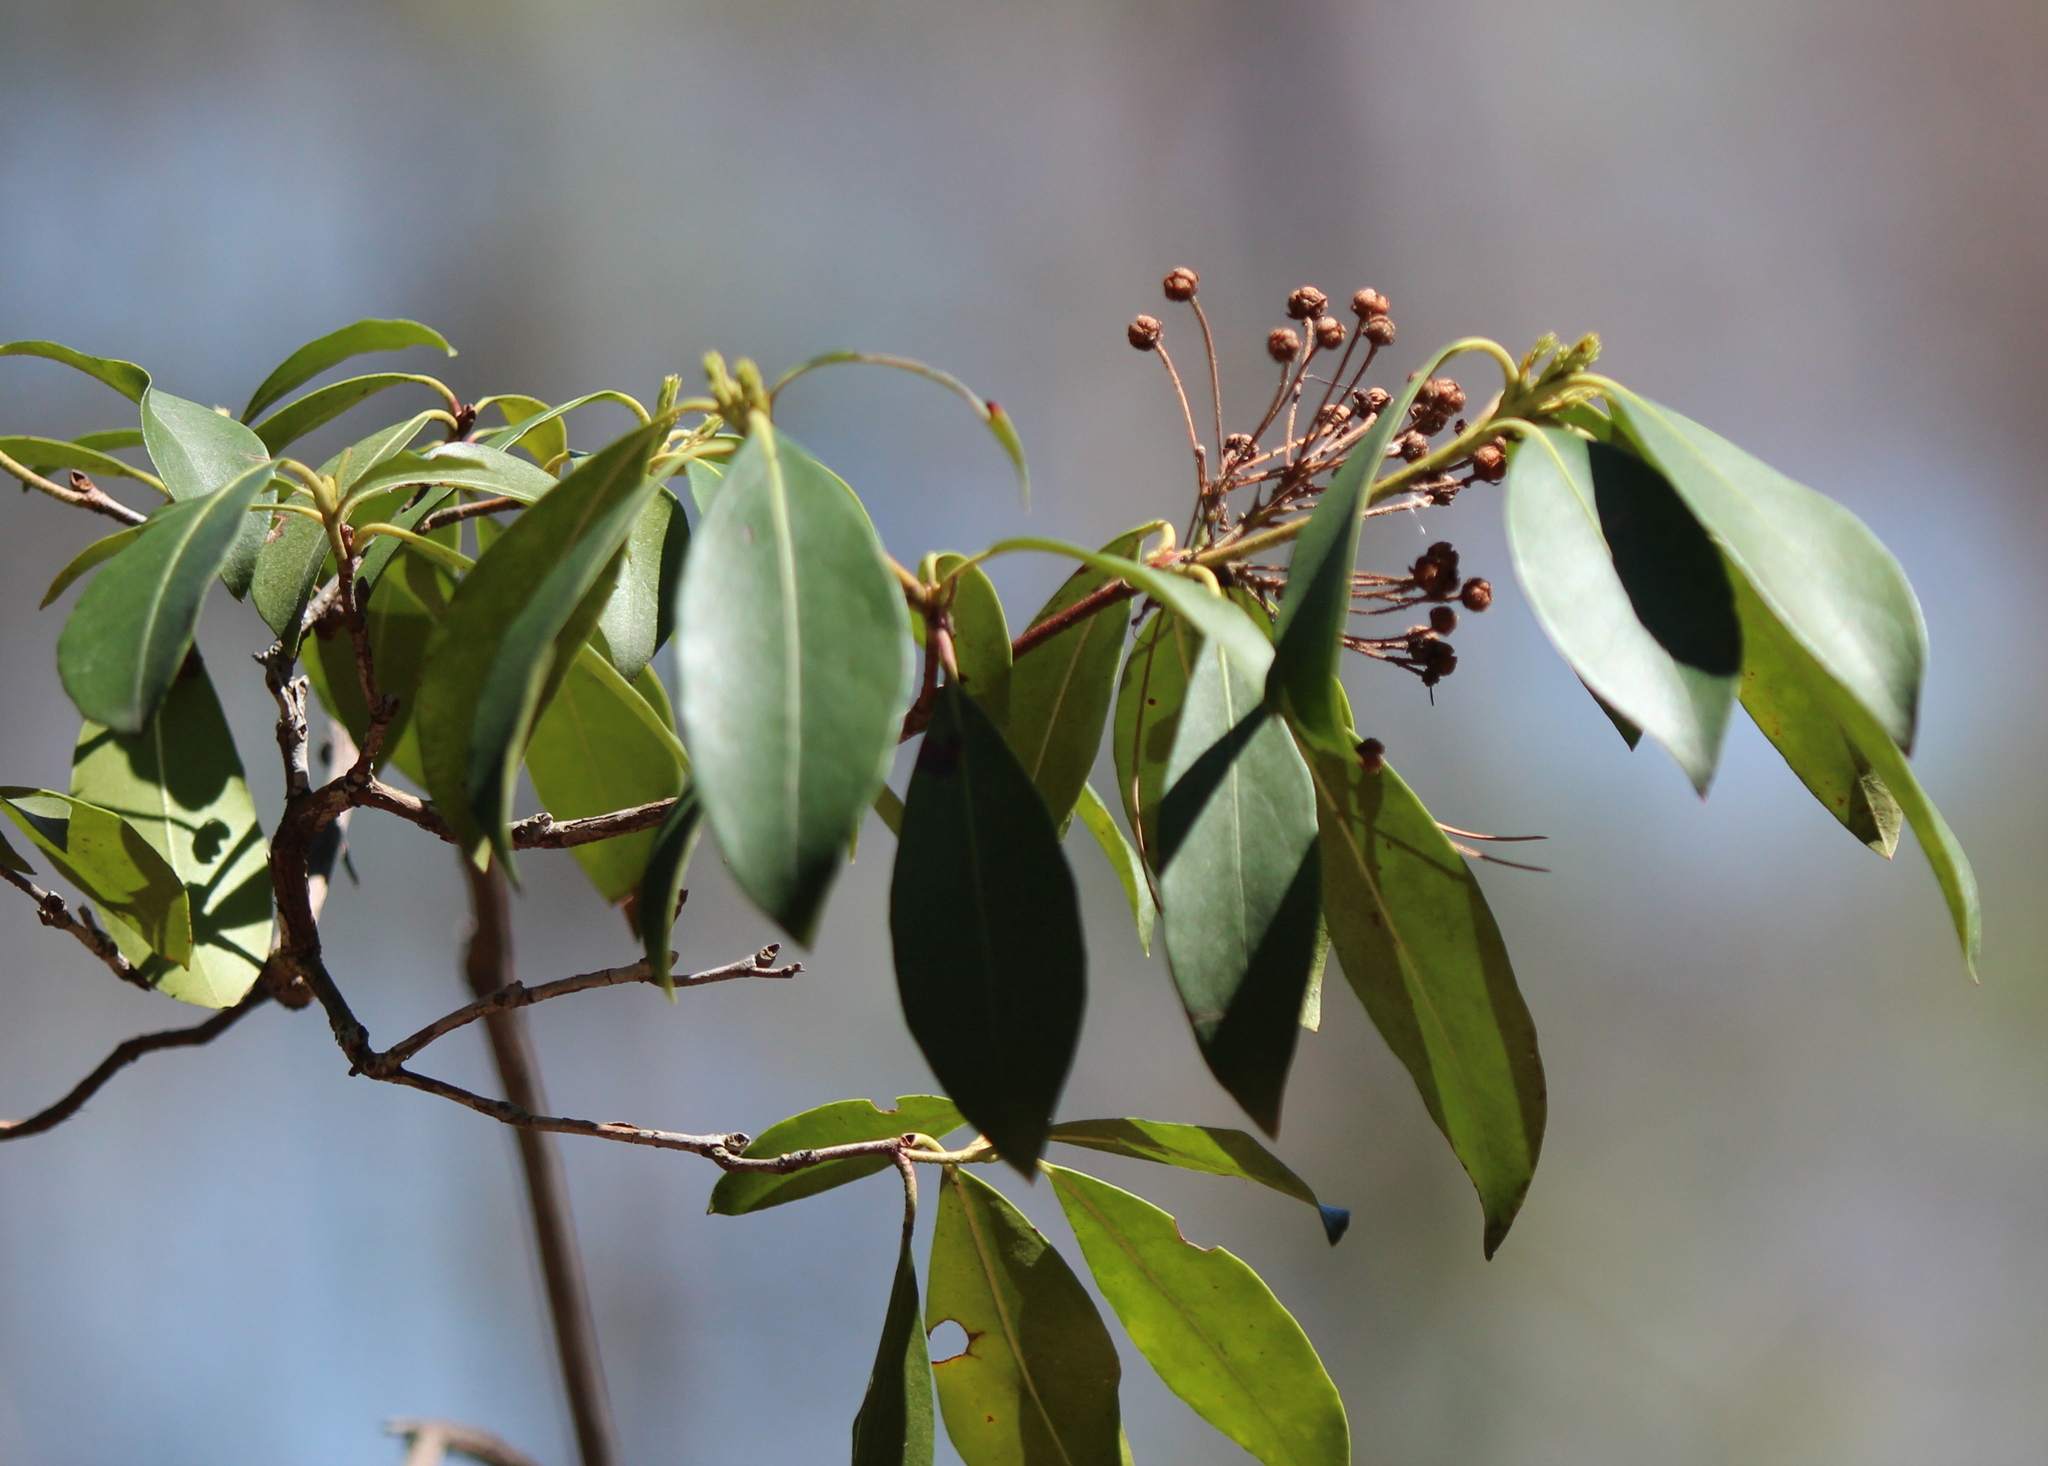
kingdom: Plantae
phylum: Tracheophyta
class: Magnoliopsida
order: Ericales
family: Ericaceae
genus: Kalmia
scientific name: Kalmia latifolia
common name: Mountain-laurel
